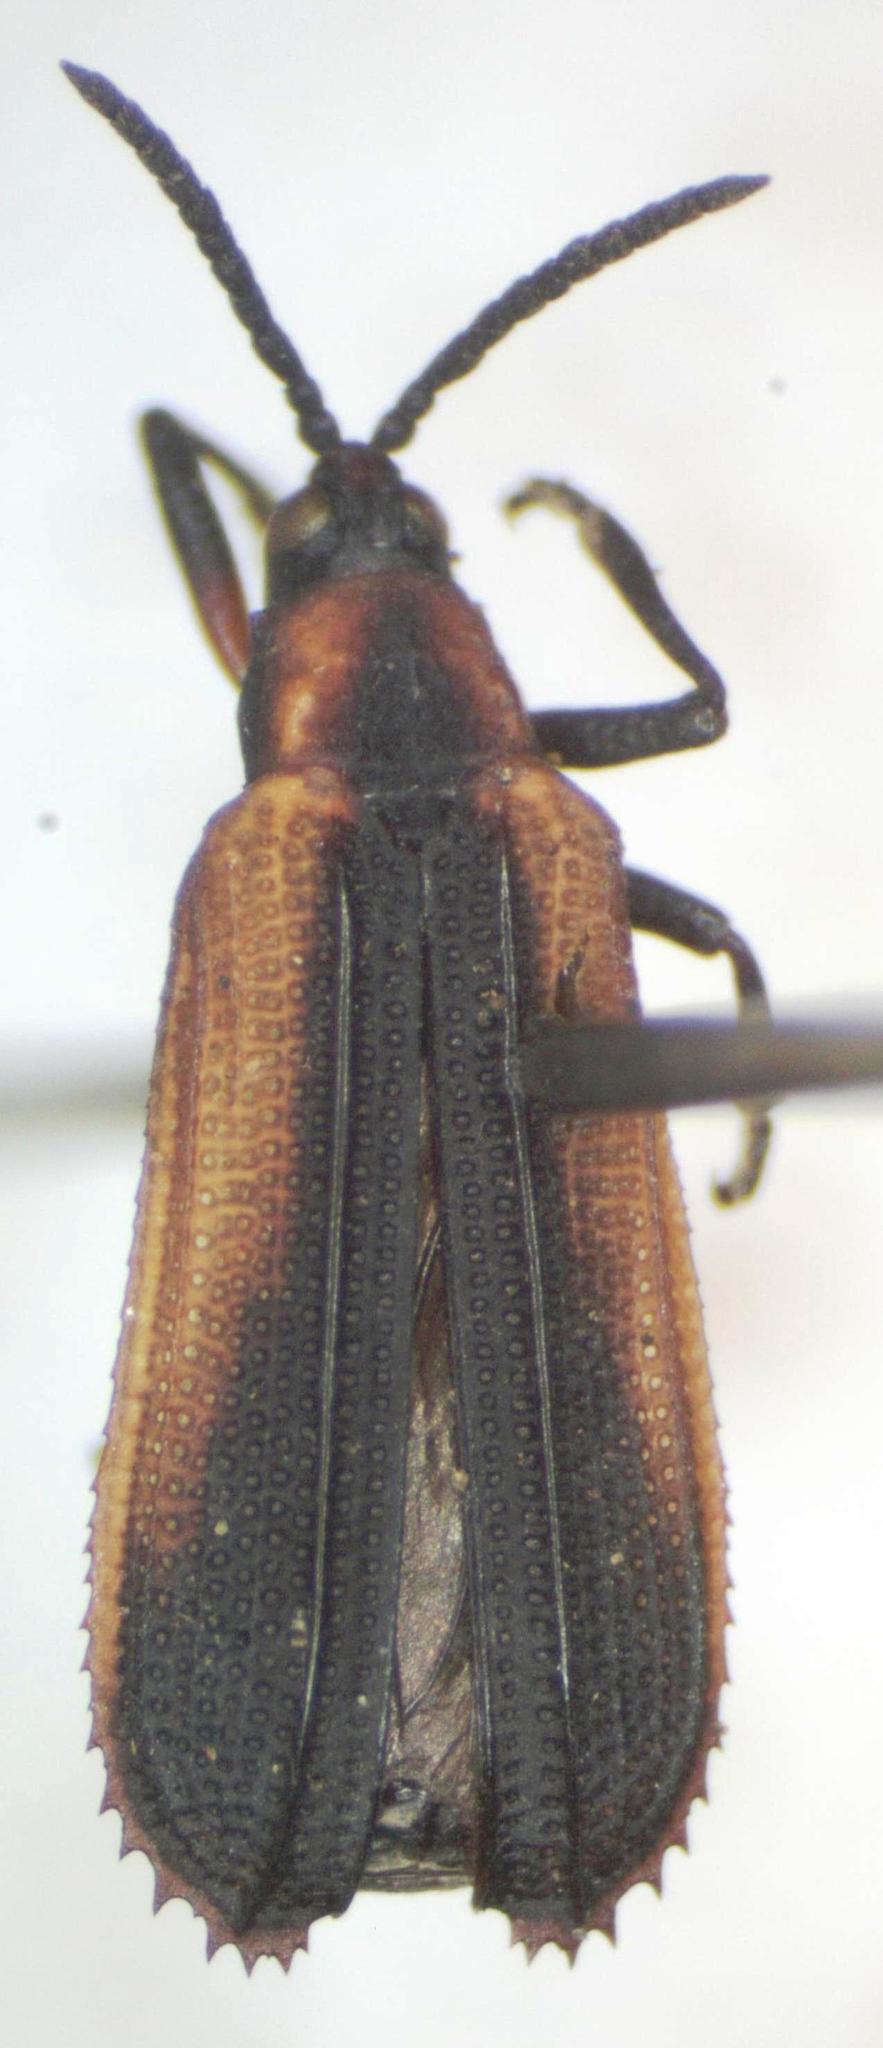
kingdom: Animalia
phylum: Arthropoda
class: Insecta
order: Coleoptera
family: Chrysomelidae
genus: Xenochalepus
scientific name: Xenochalepus fraternalis
